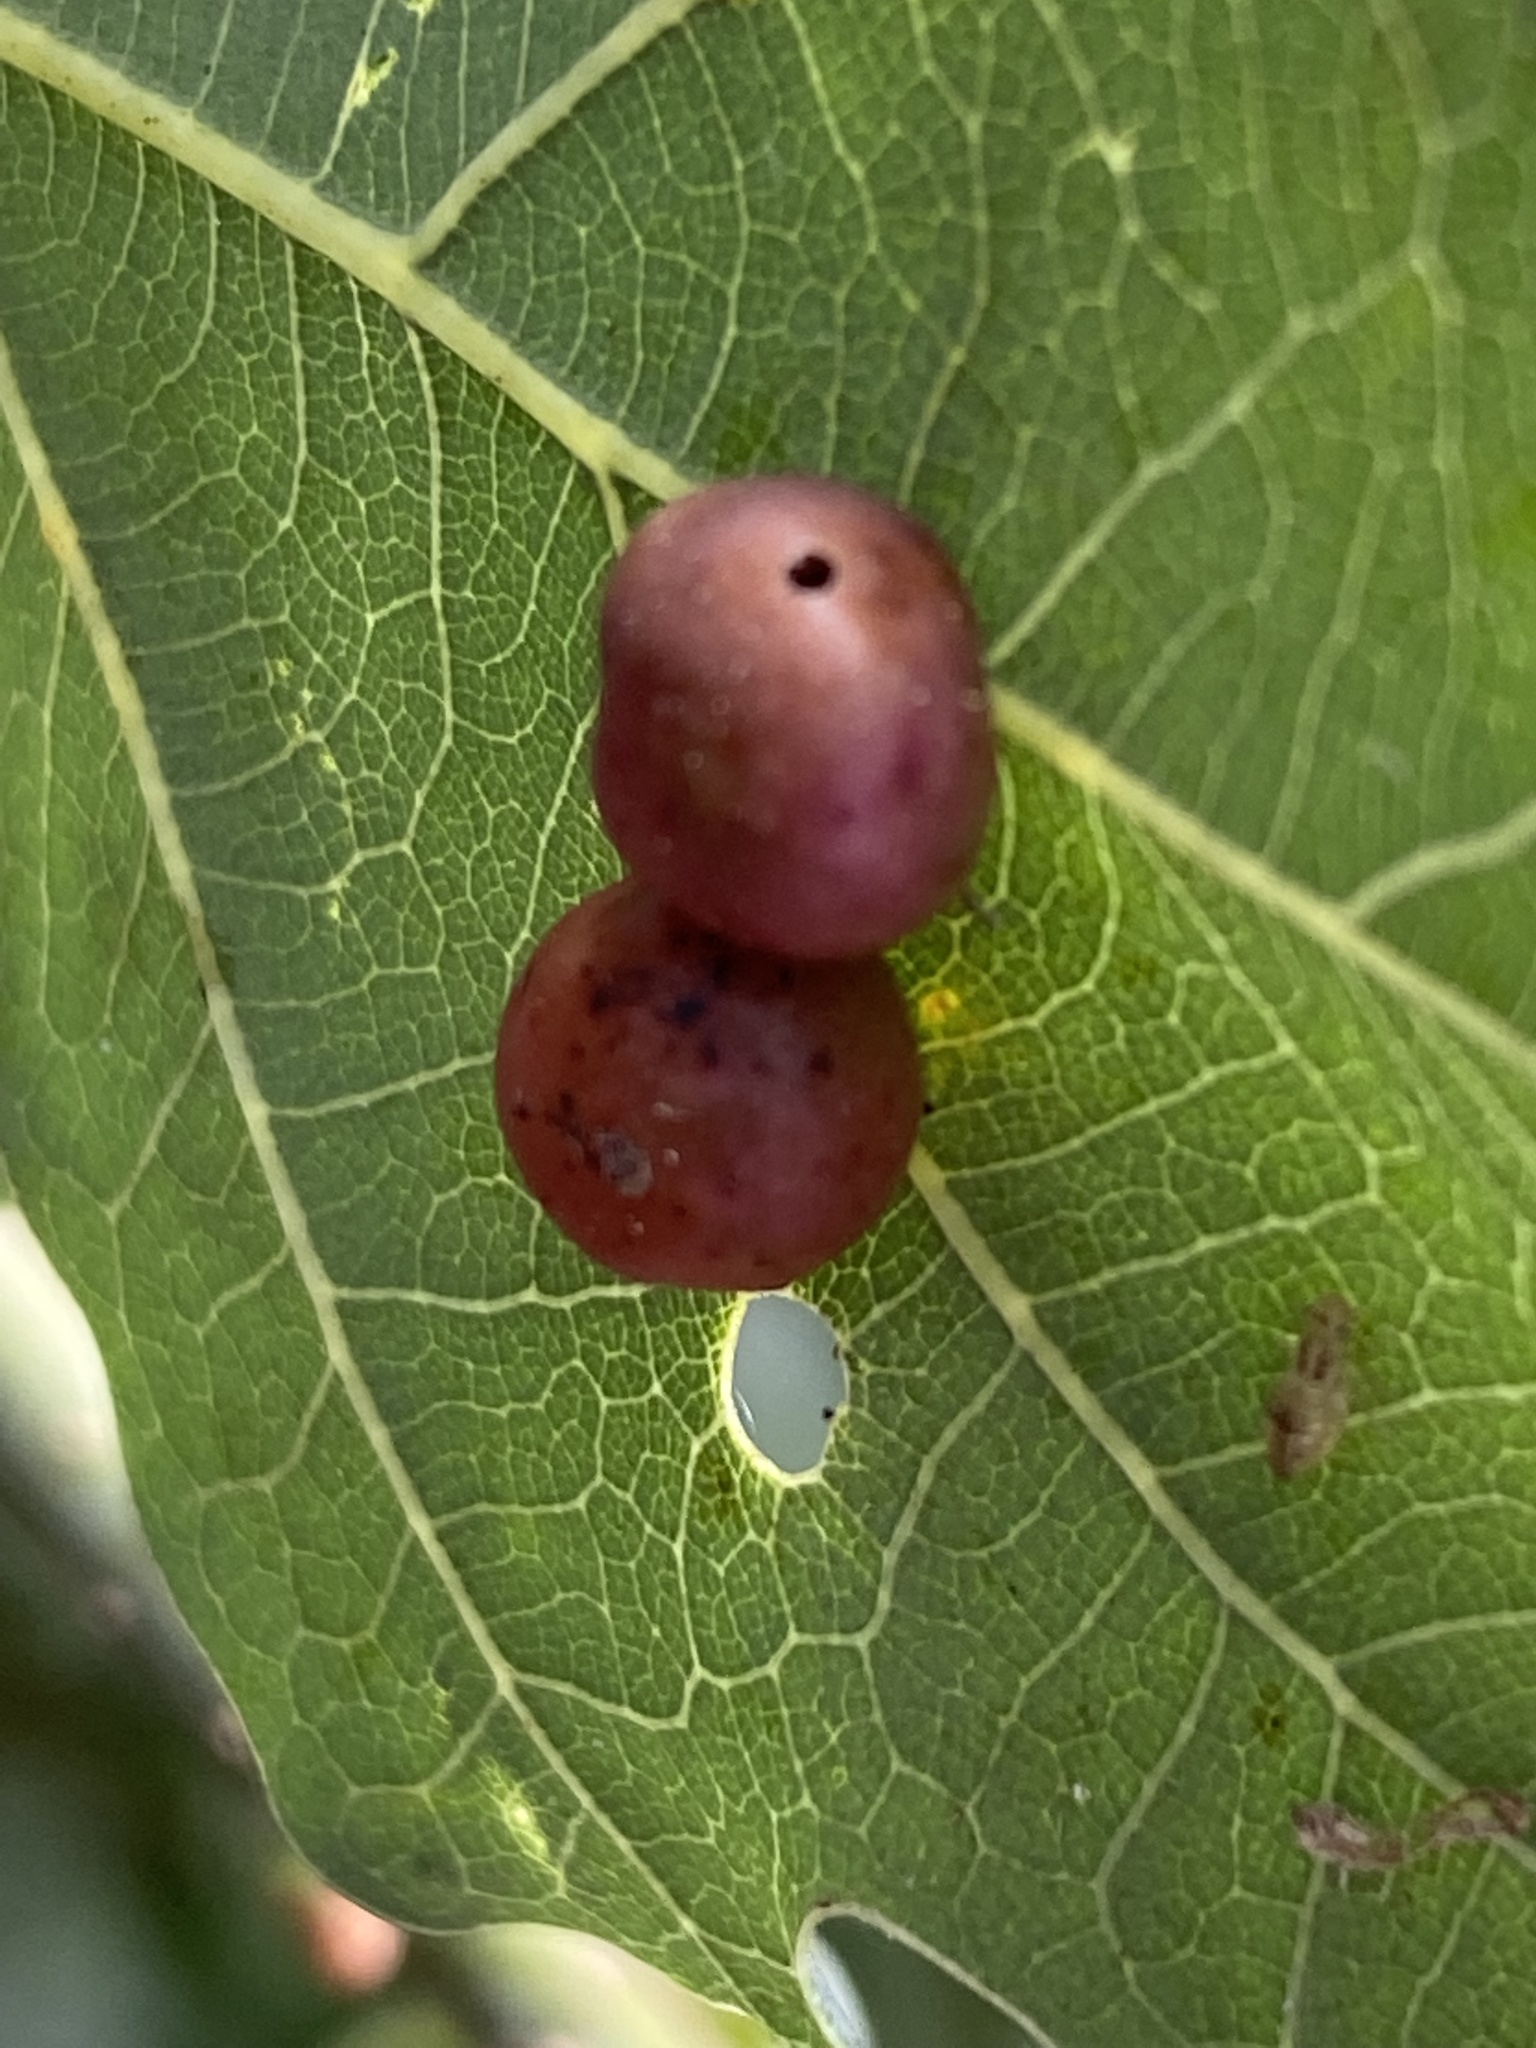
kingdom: Animalia
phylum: Arthropoda
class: Insecta
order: Hymenoptera
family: Cynipidae
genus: Cynips
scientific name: Cynips divisa
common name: Red currant gall
